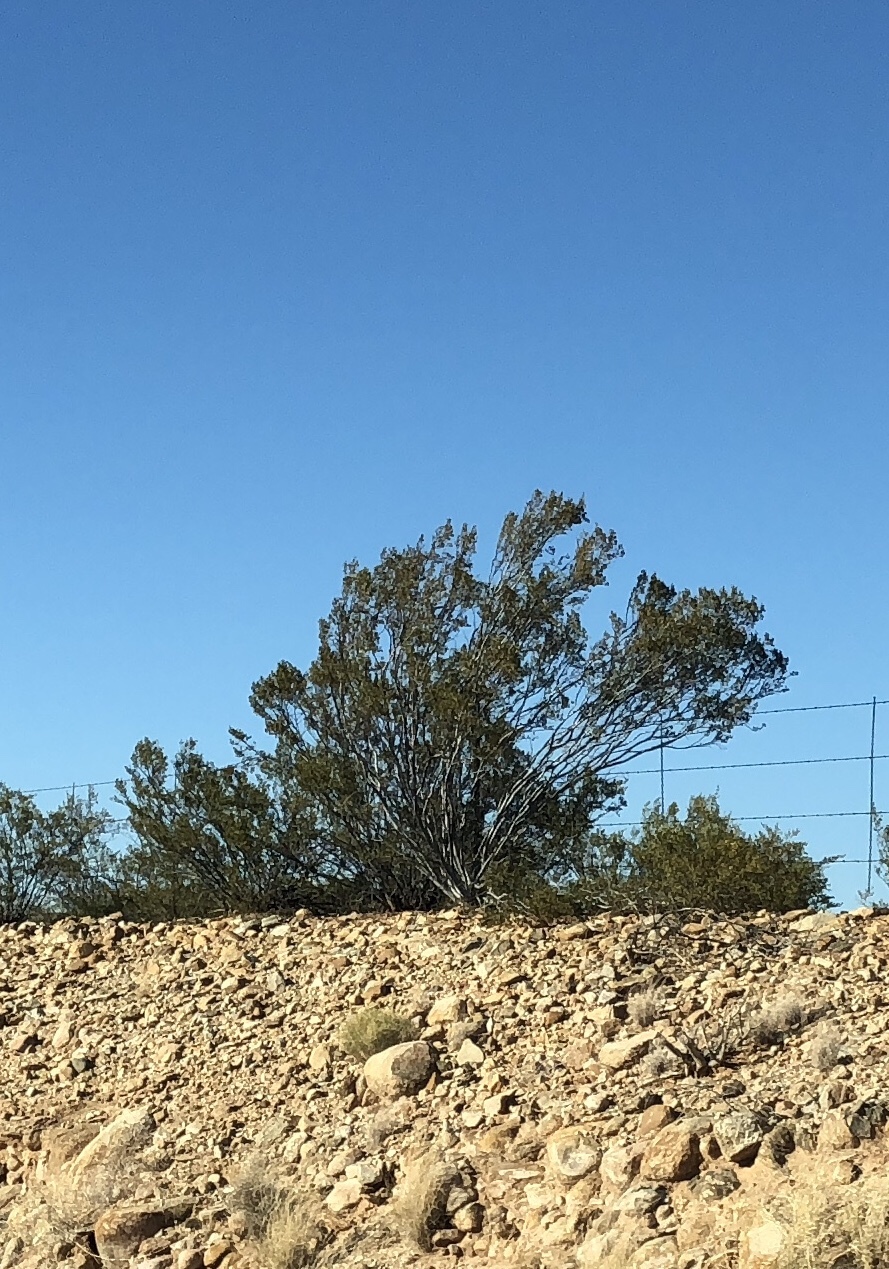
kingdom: Plantae
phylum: Tracheophyta
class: Magnoliopsida
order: Zygophyllales
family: Zygophyllaceae
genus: Larrea
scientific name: Larrea tridentata
